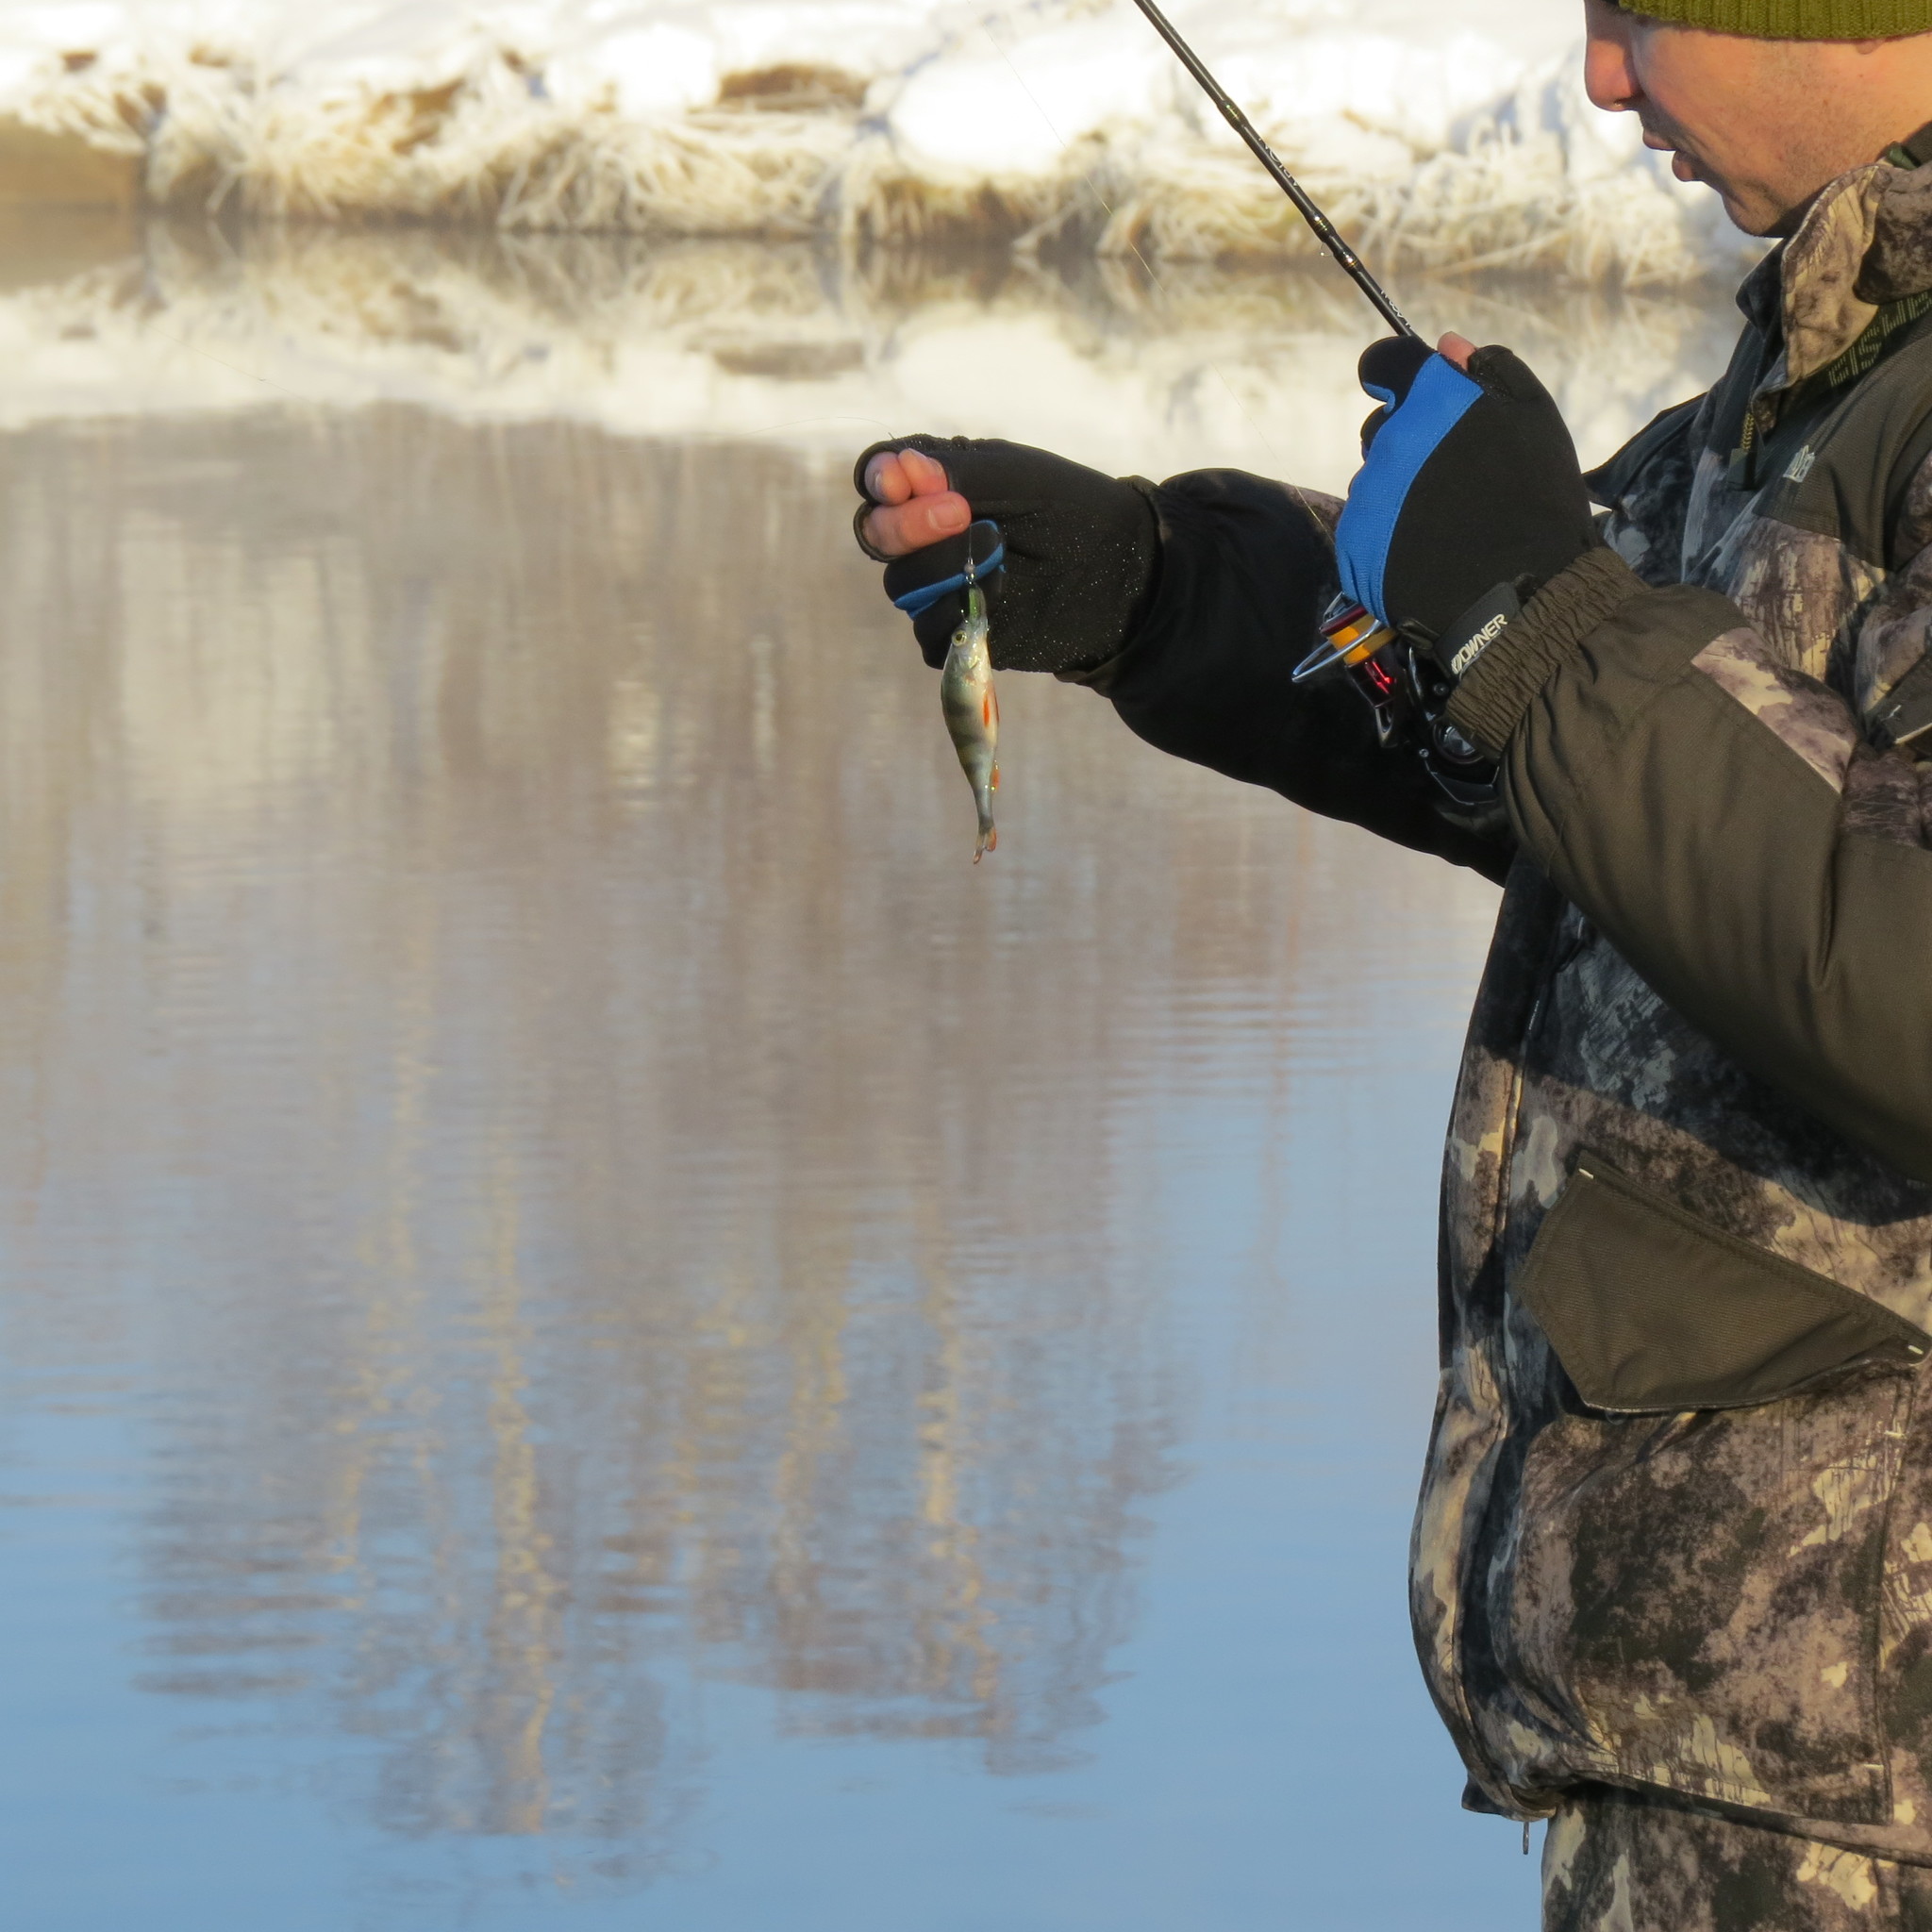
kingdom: Animalia
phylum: Chordata
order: Perciformes
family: Percidae
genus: Perca
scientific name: Perca fluviatilis
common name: Perch
